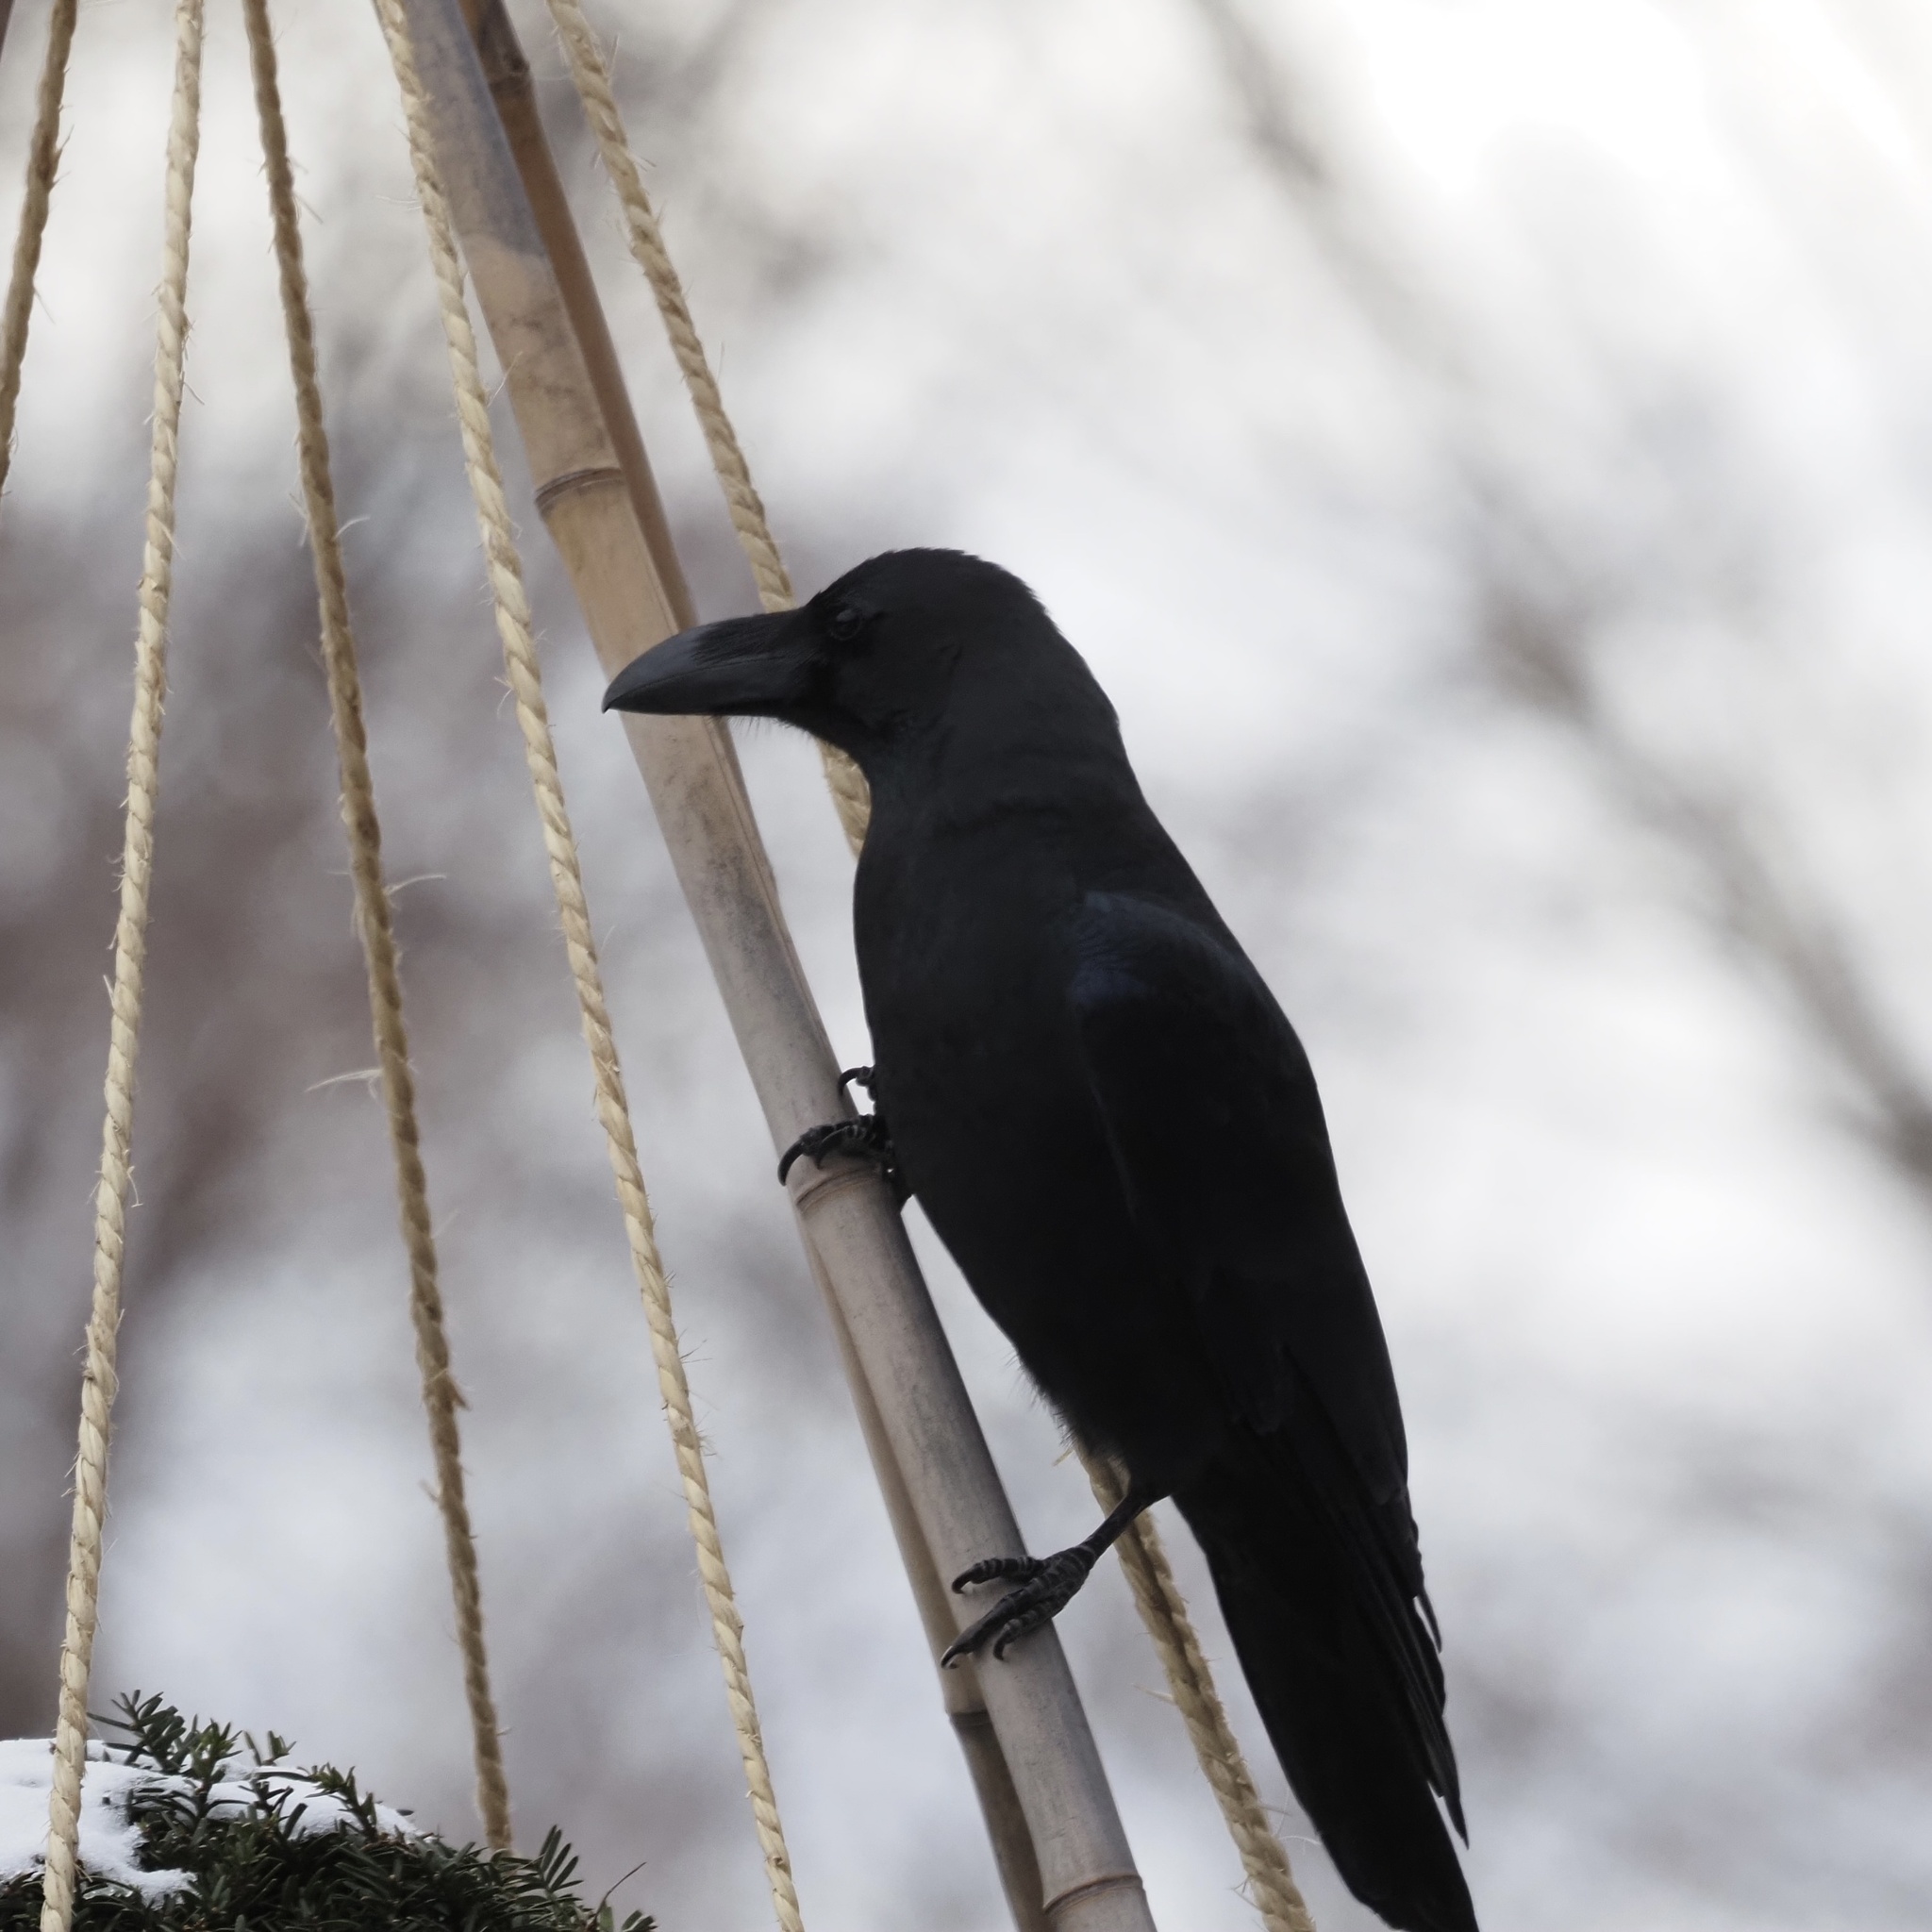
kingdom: Animalia
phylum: Chordata
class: Aves
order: Passeriformes
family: Corvidae
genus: Corvus
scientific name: Corvus macrorhynchos
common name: Large-billed crow
